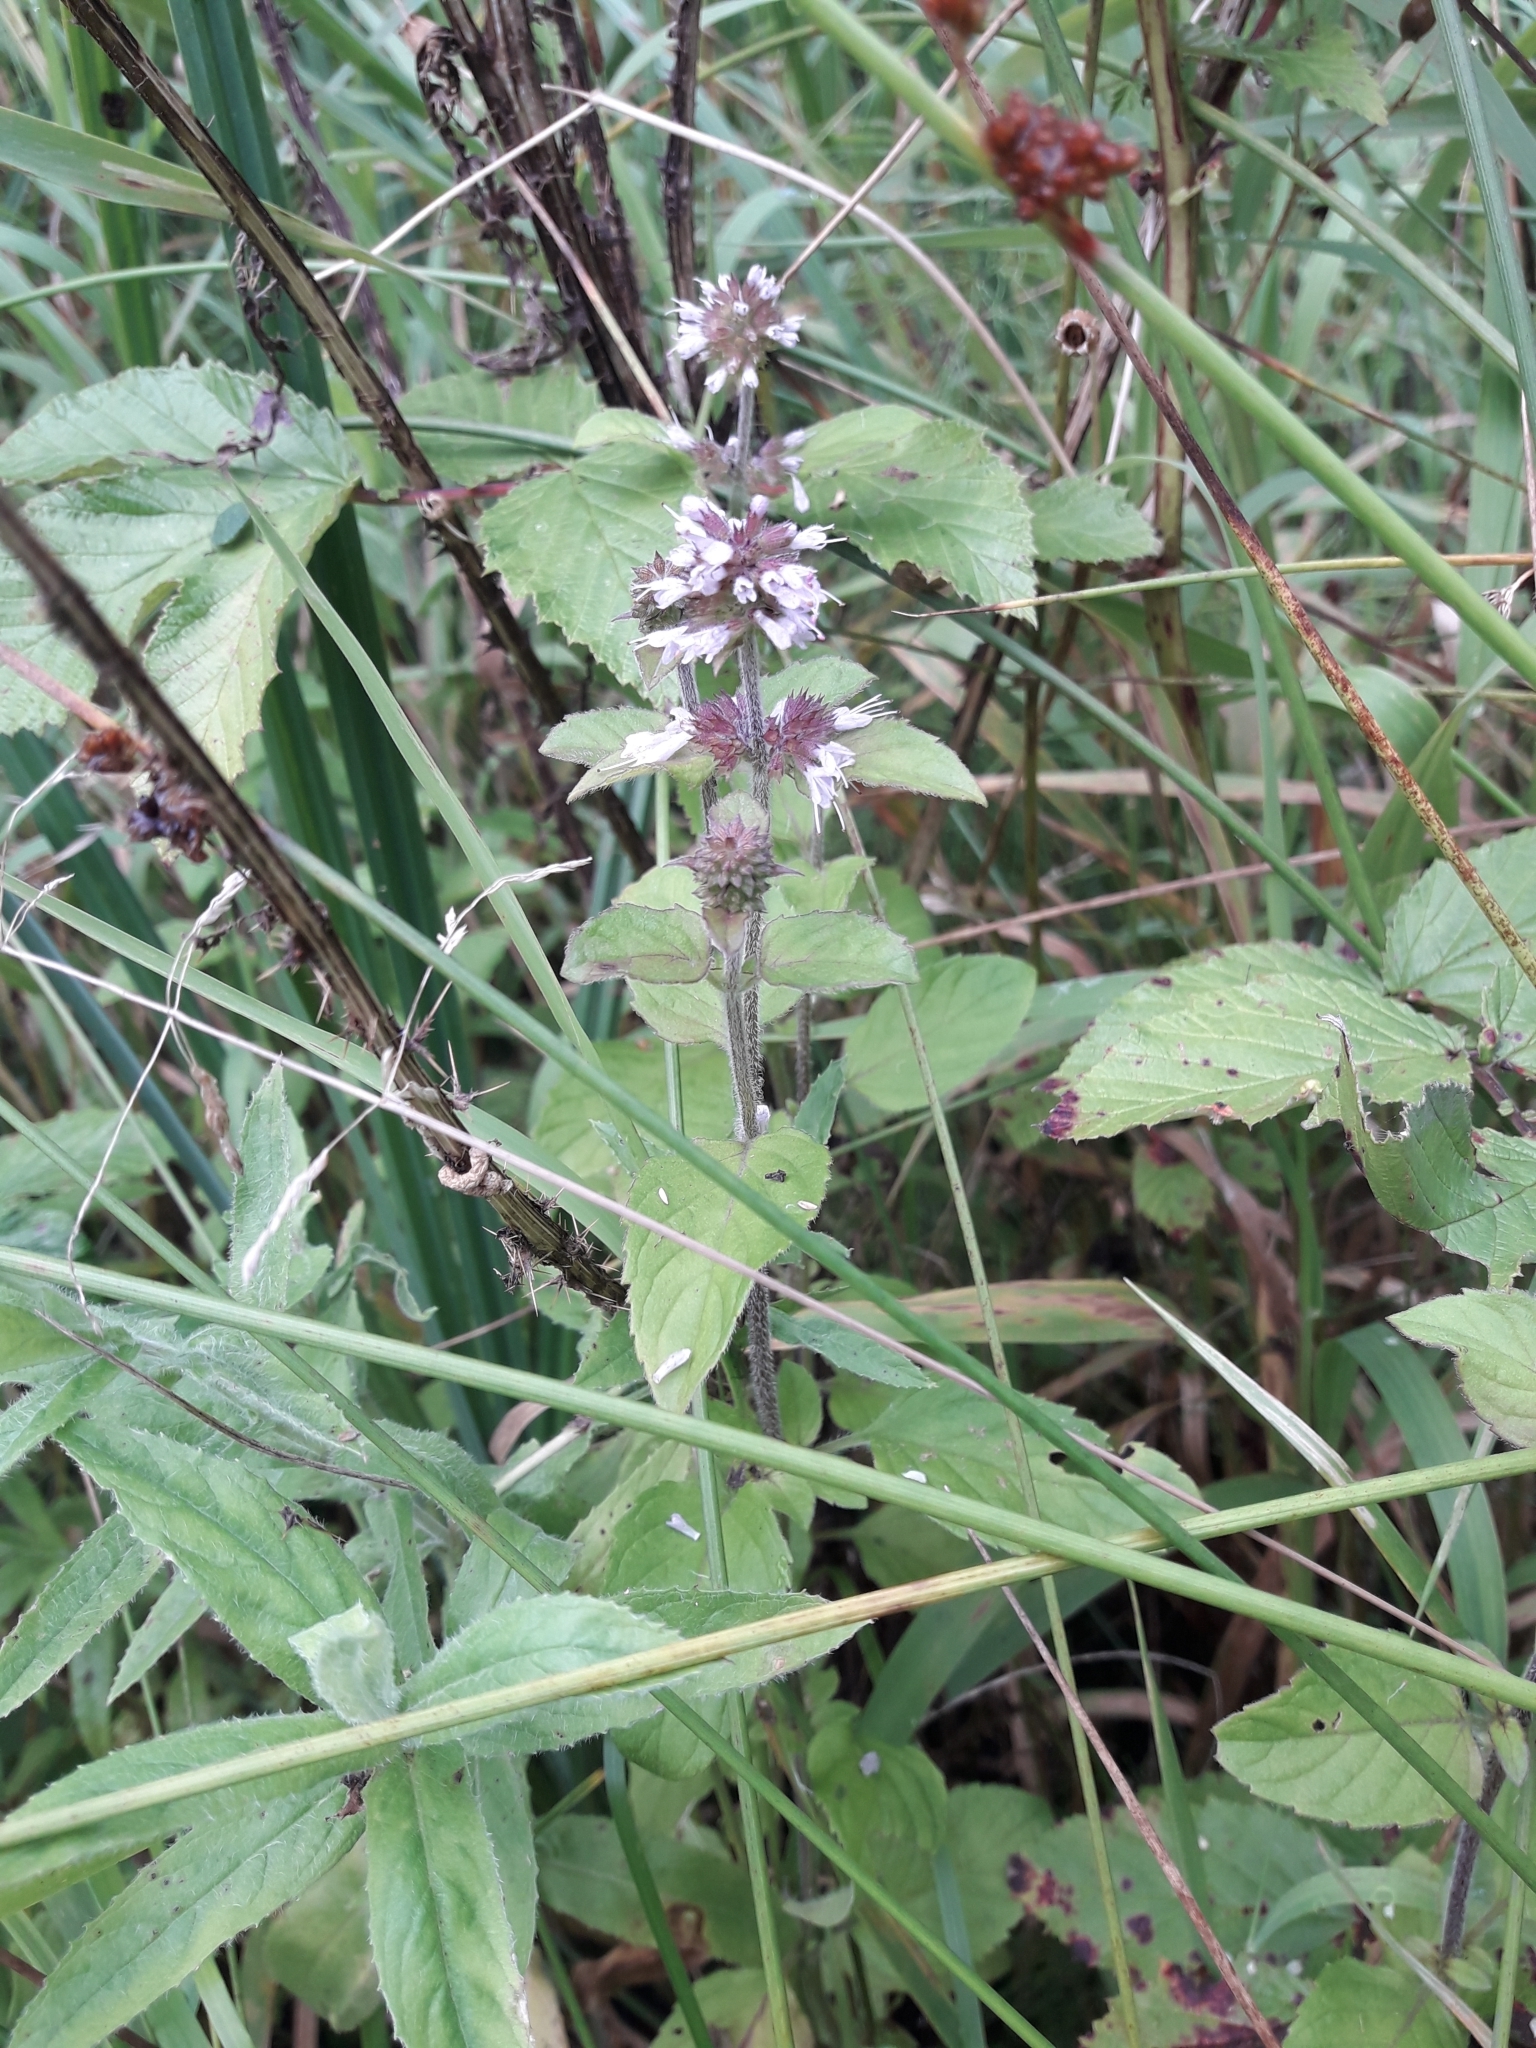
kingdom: Plantae
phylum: Tracheophyta
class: Magnoliopsida
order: Lamiales
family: Lamiaceae
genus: Mentha
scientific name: Mentha aquatica
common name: Water mint
